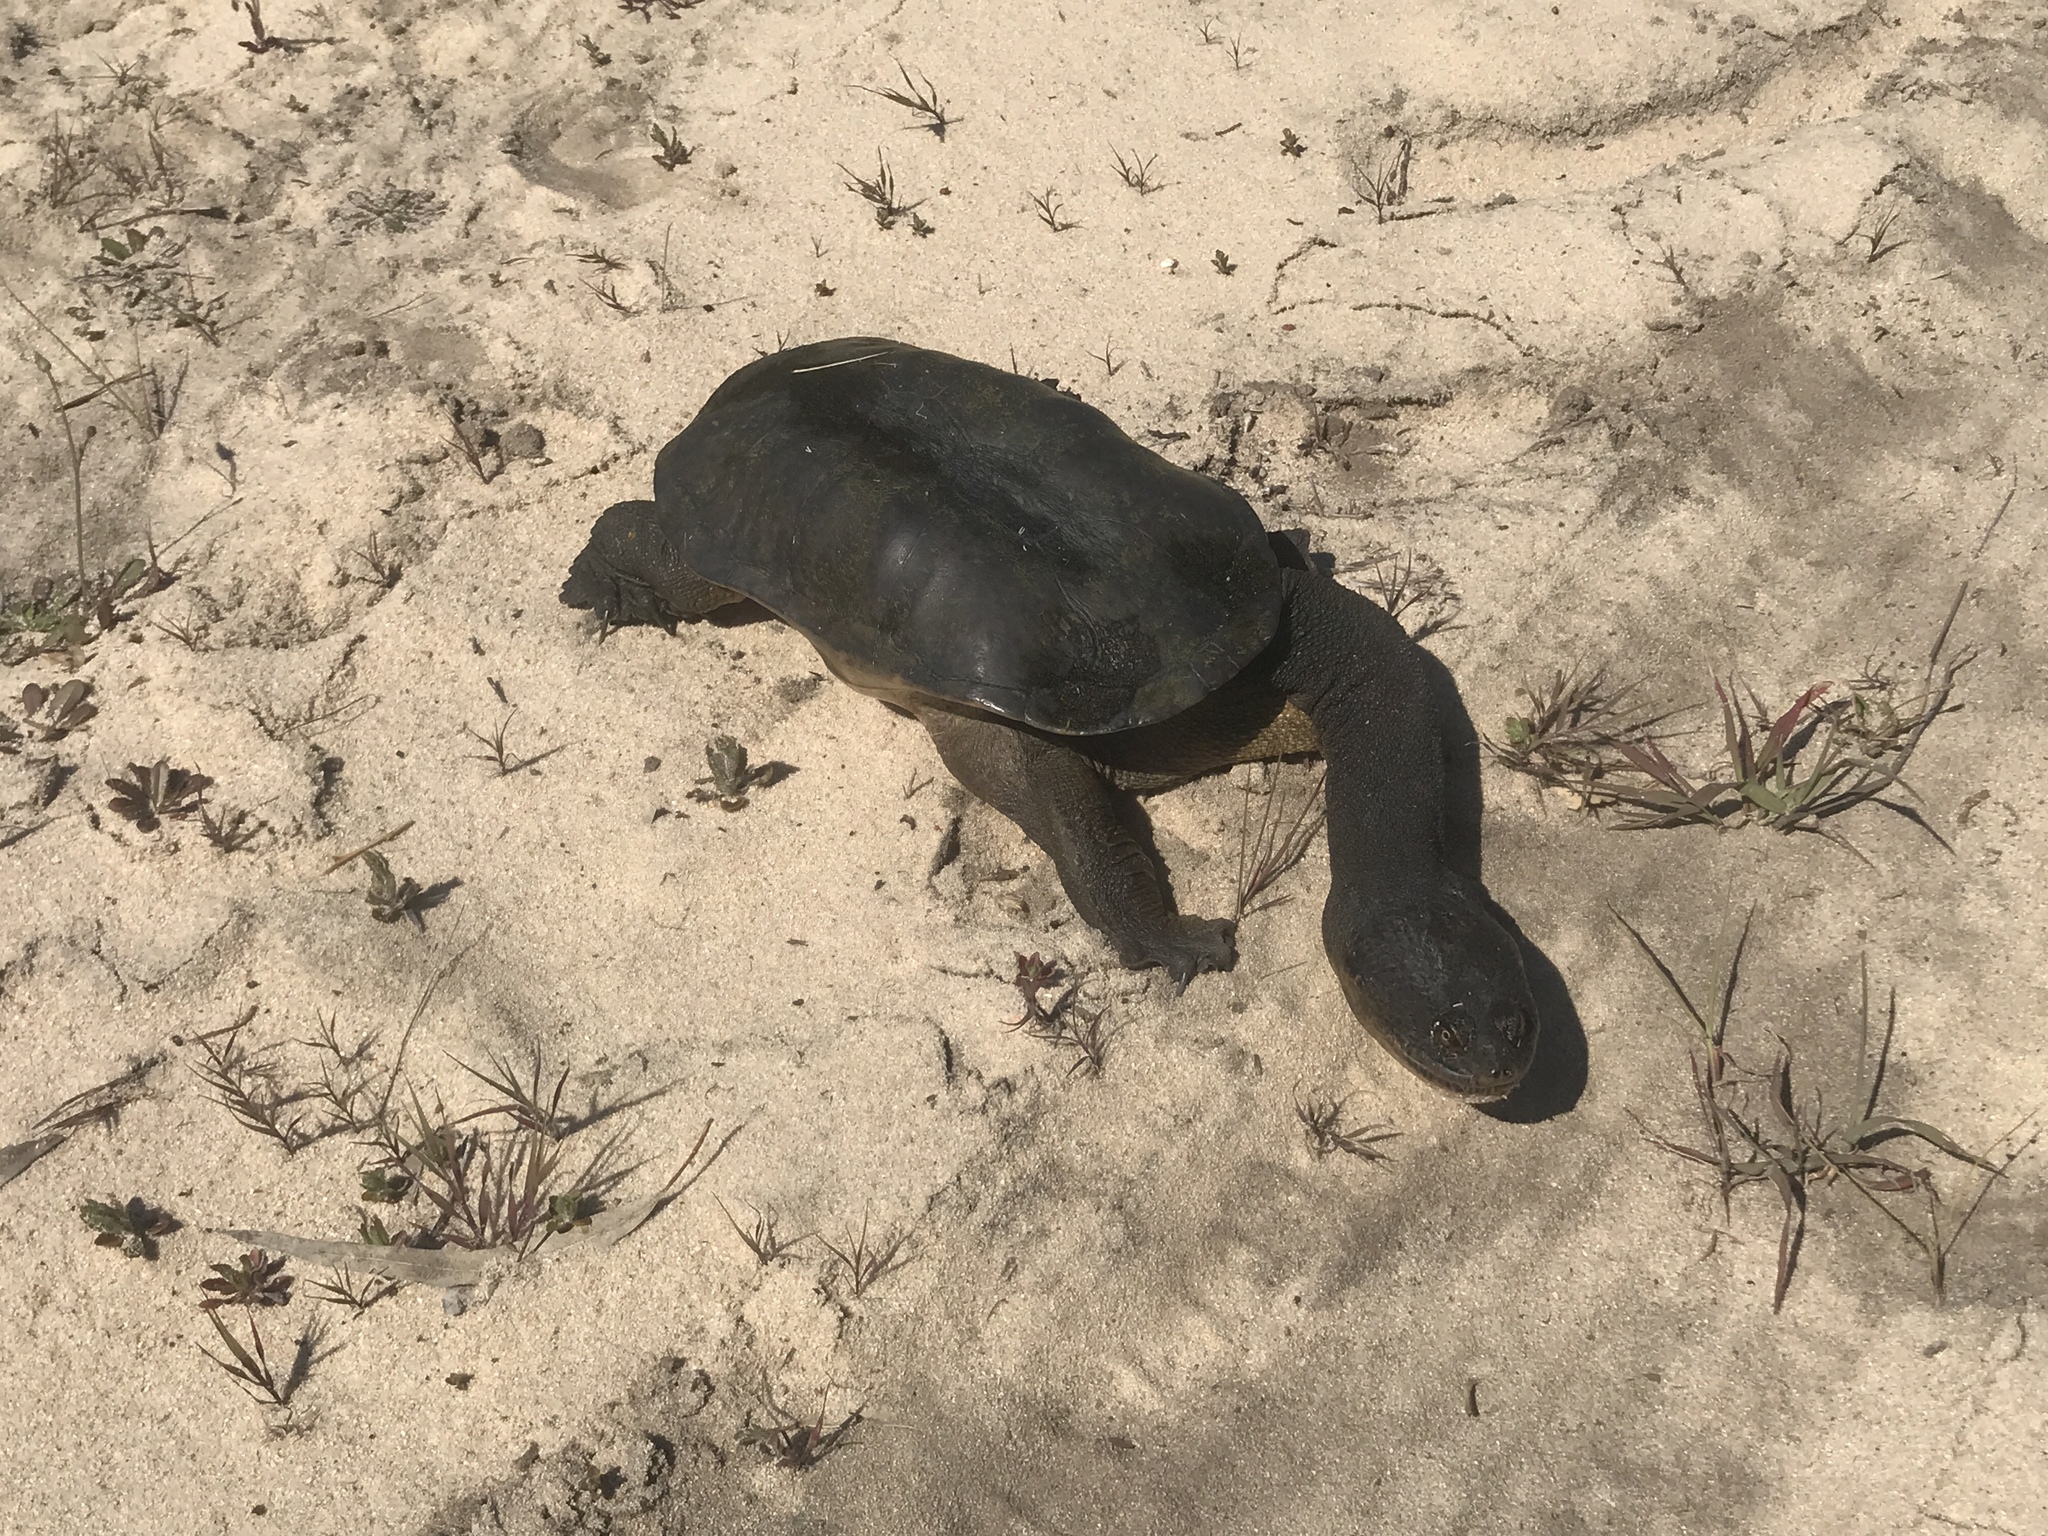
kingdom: Animalia
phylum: Chordata
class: Testudines
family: Chelidae
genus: Chelodina
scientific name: Chelodina oblonga
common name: Northern snake-necked turtle
